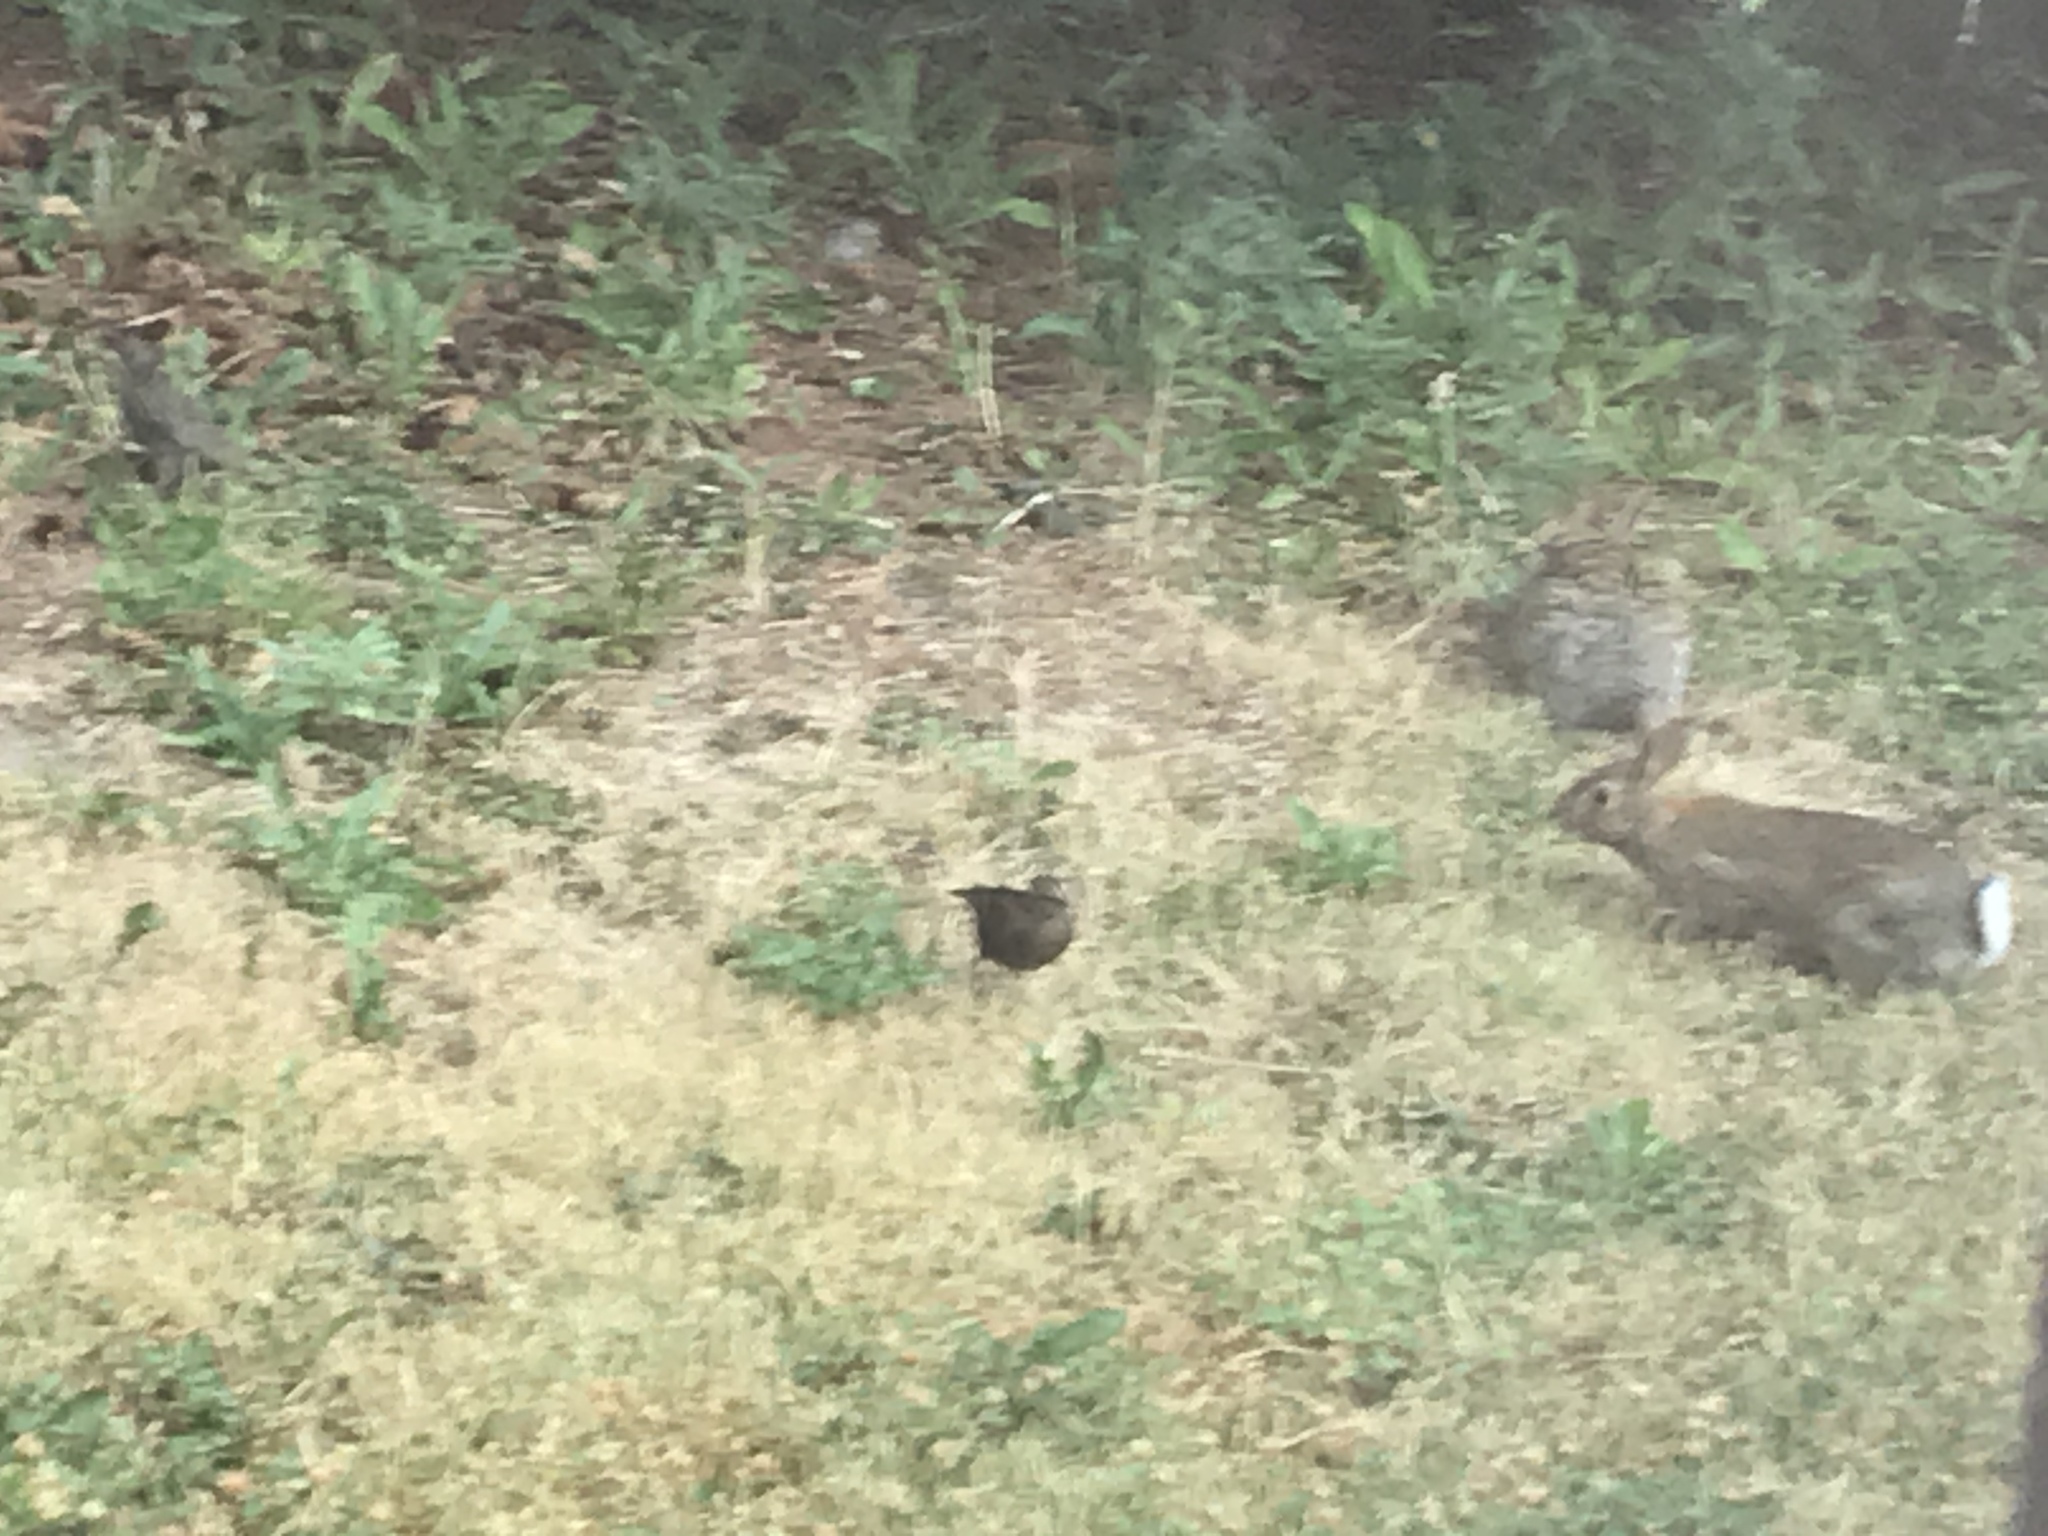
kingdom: Animalia
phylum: Chordata
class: Aves
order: Passeriformes
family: Sturnidae
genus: Sturnus
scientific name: Sturnus vulgaris
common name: Common starling
